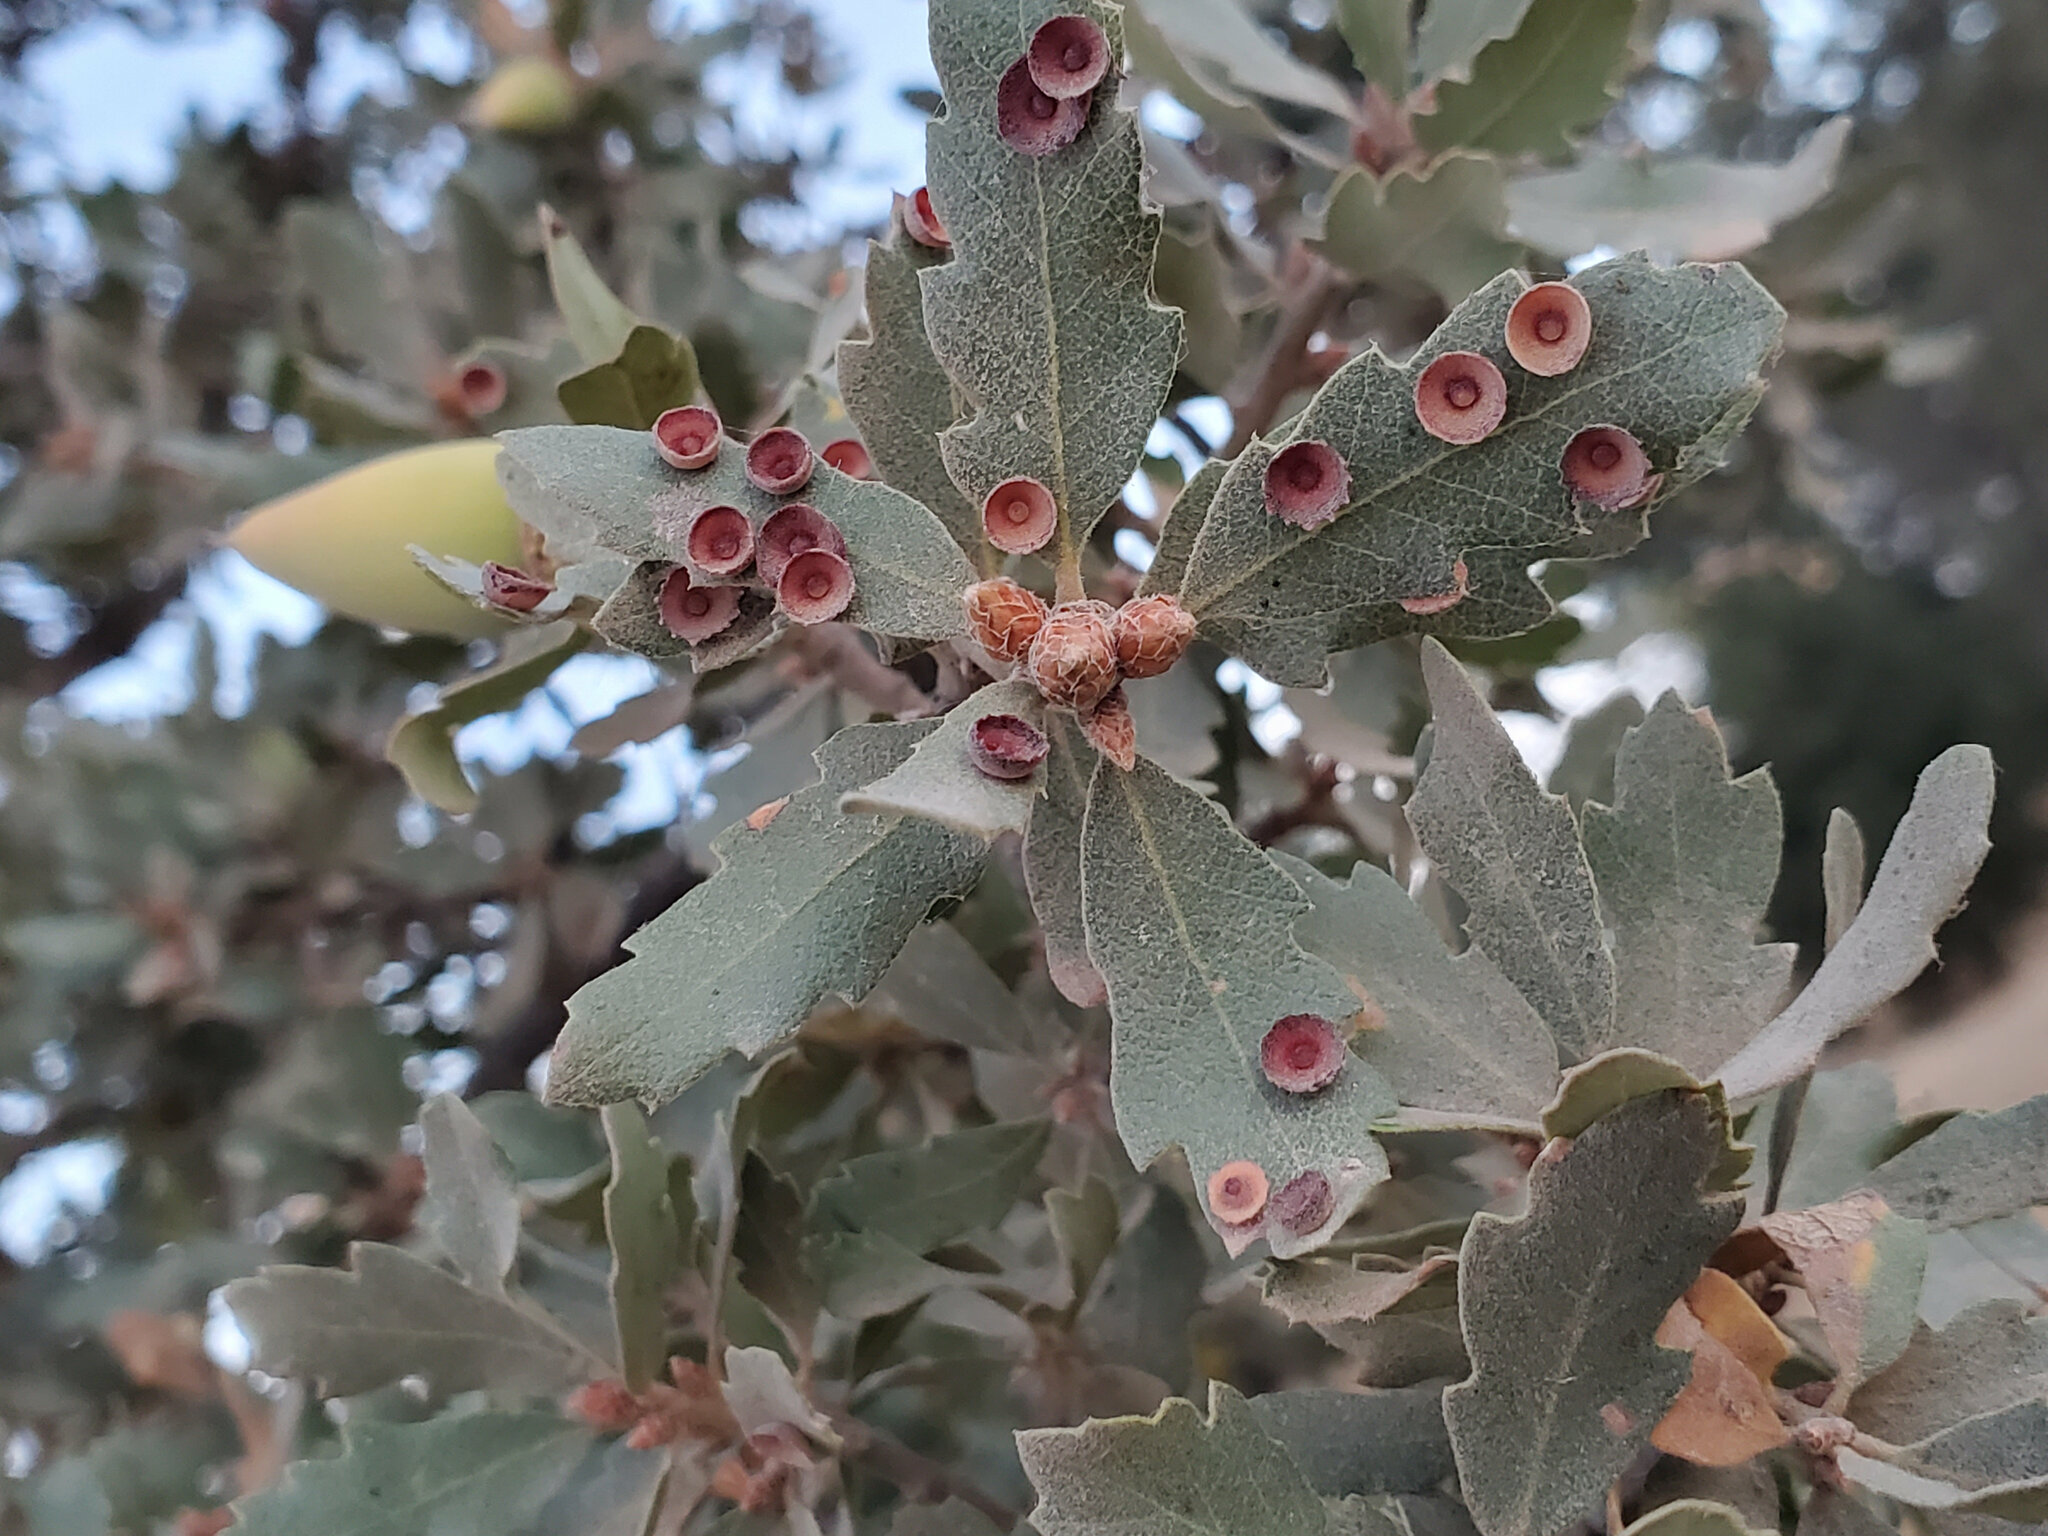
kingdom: Animalia
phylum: Arthropoda
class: Insecta
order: Hymenoptera
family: Cynipidae
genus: Andricus
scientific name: Andricus
